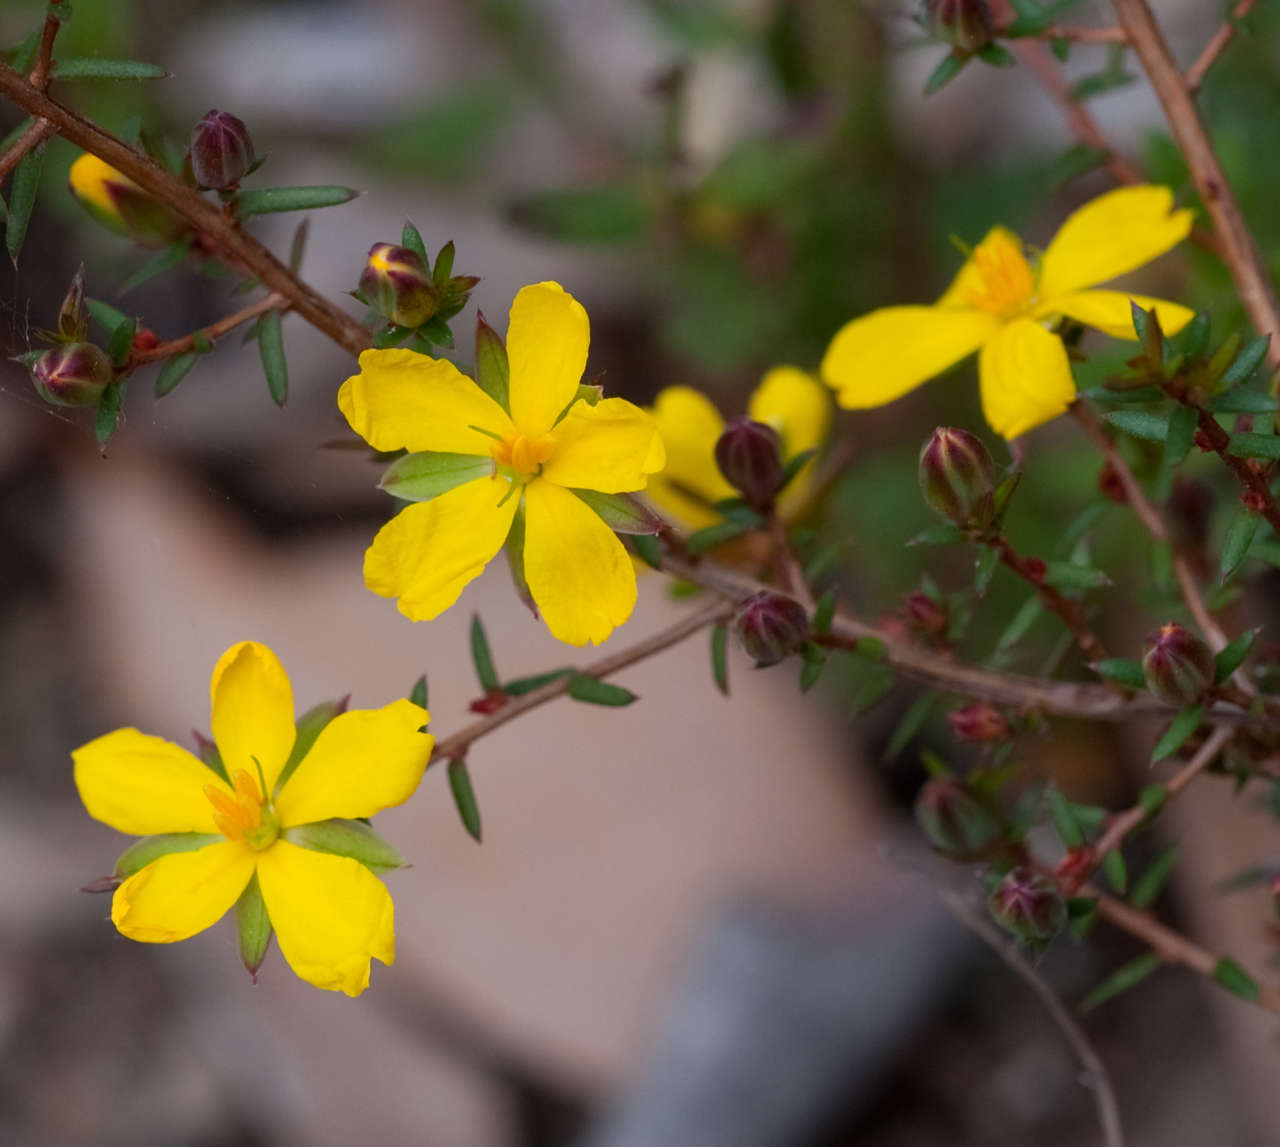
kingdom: Plantae
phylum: Tracheophyta
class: Magnoliopsida
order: Dilleniales
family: Dilleniaceae
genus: Hibbertia
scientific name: Hibbertia exutiacies
